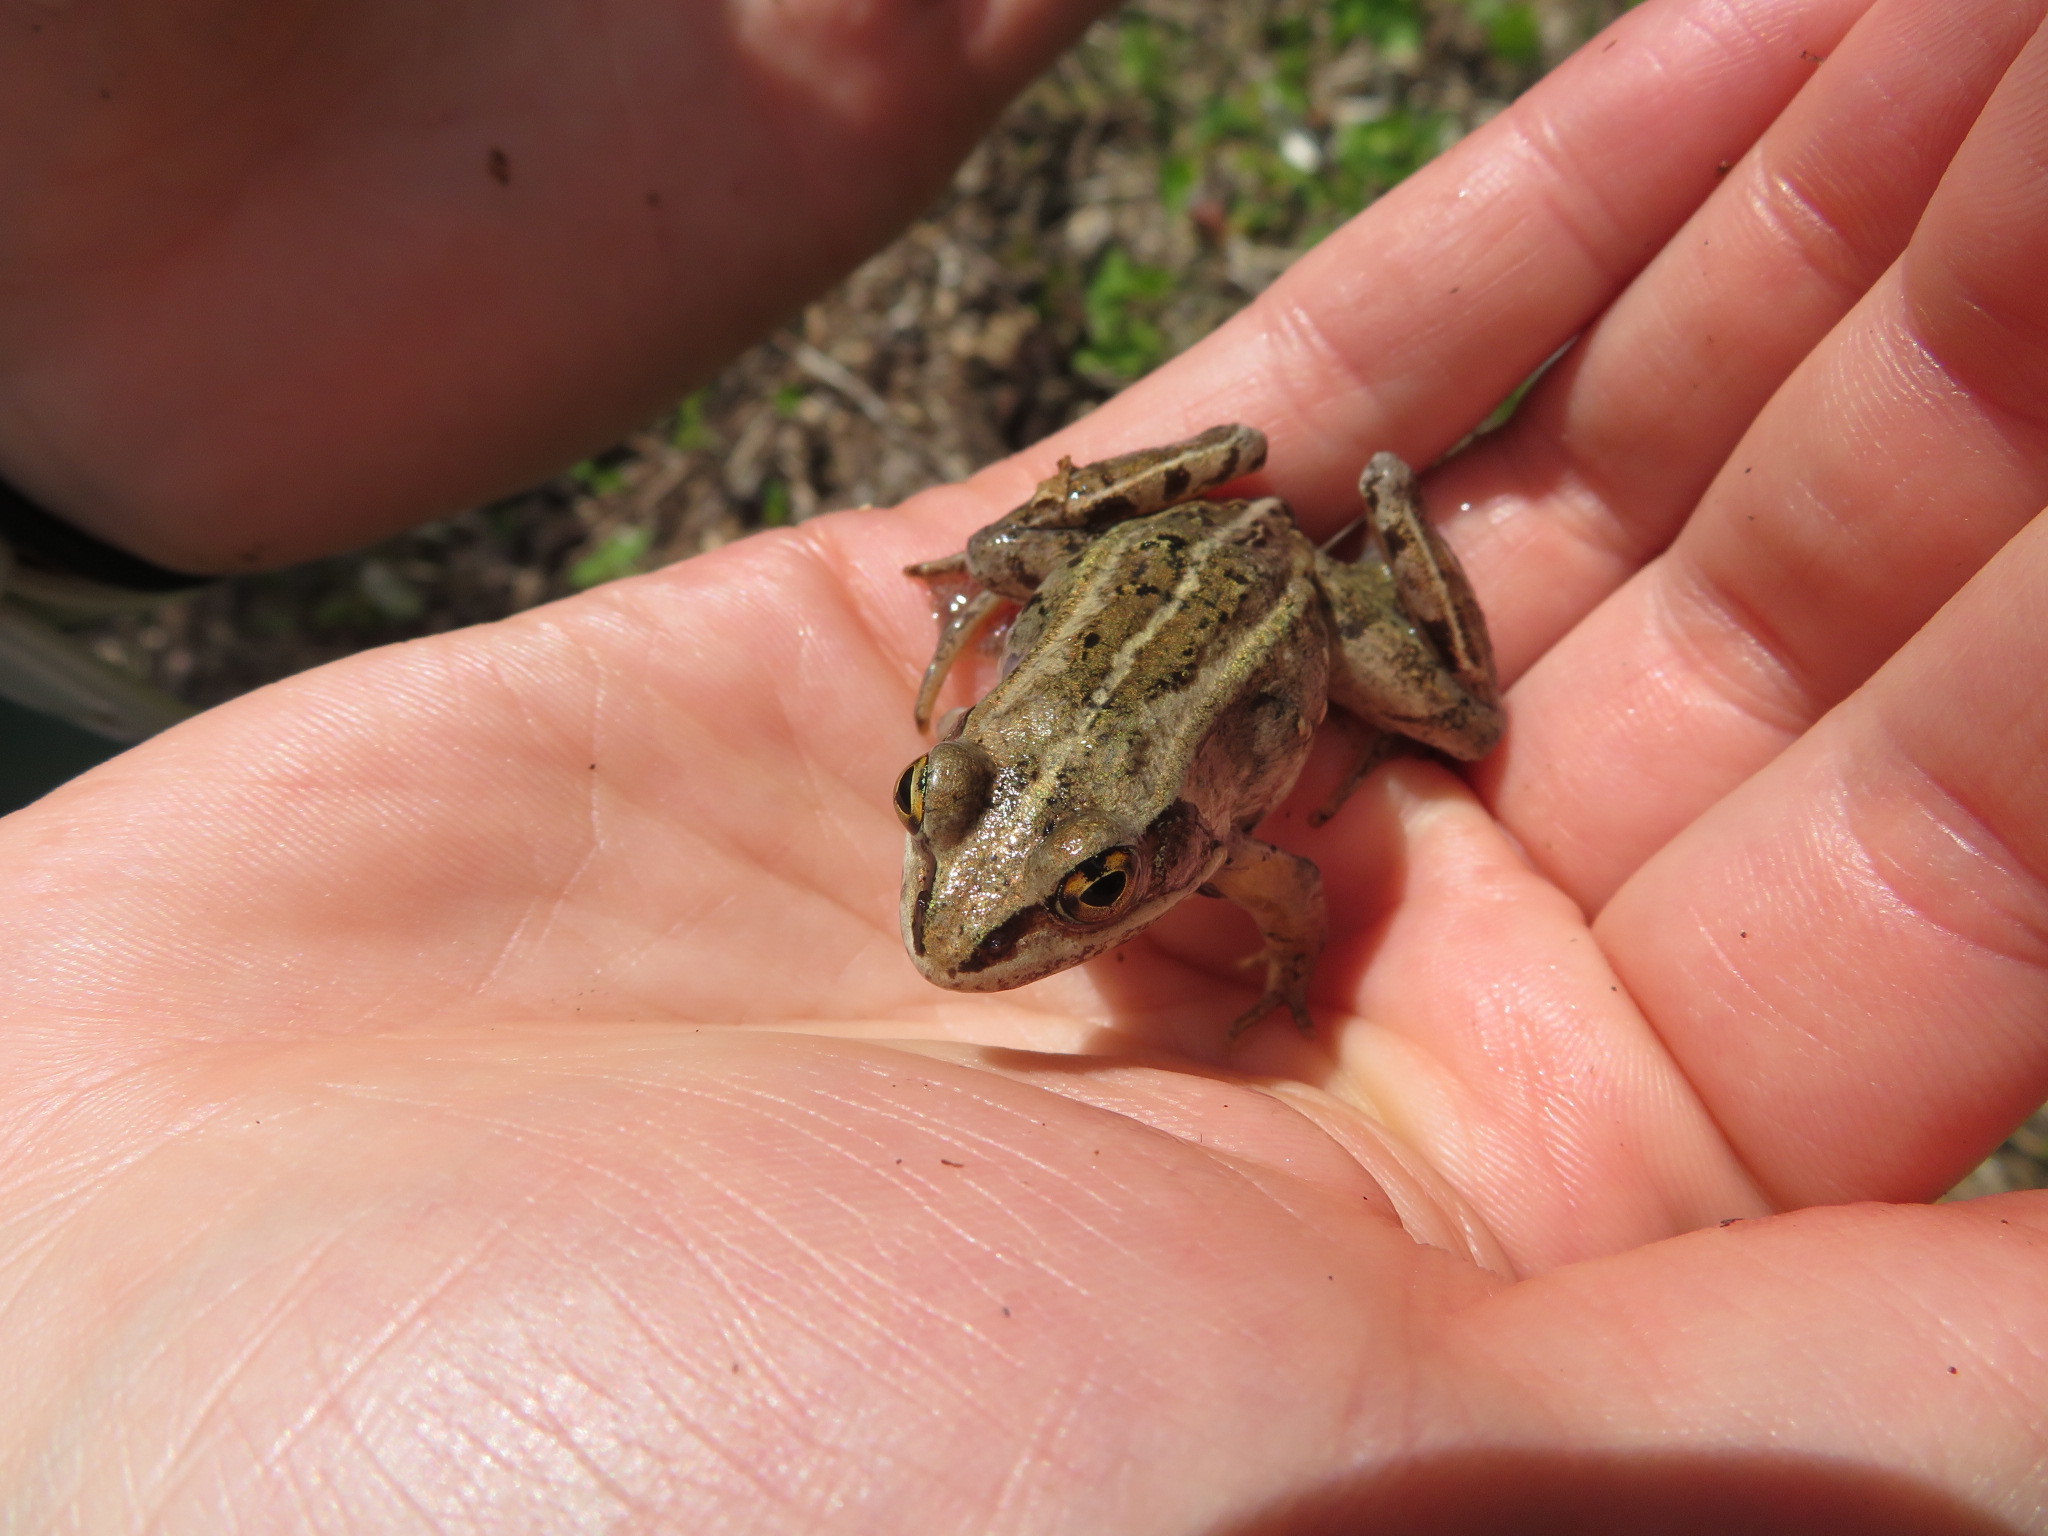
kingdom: Animalia
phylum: Chordata
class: Amphibia
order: Anura
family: Ranidae
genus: Lithobates
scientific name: Lithobates sylvaticus
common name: Wood frog
